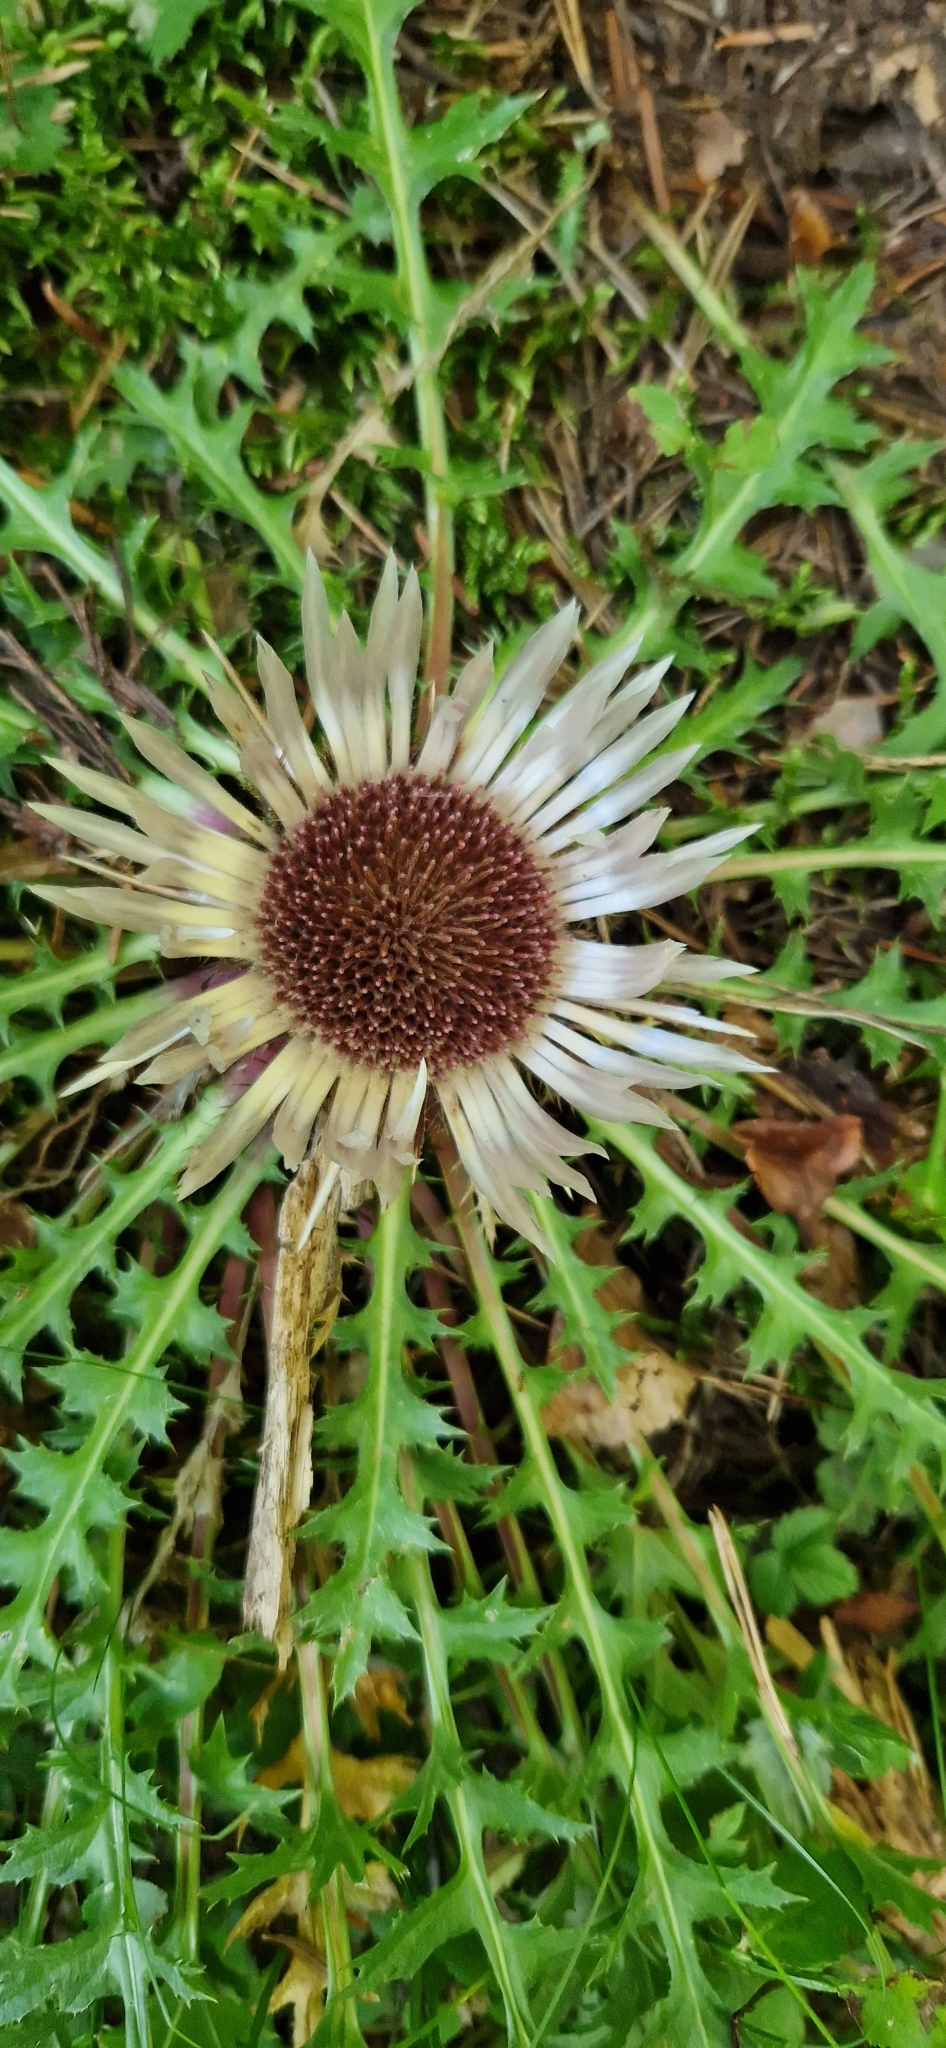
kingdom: Plantae
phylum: Tracheophyta
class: Magnoliopsida
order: Asterales
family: Asteraceae
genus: Carlina
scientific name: Carlina acaulis
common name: Stemless carline thistle
